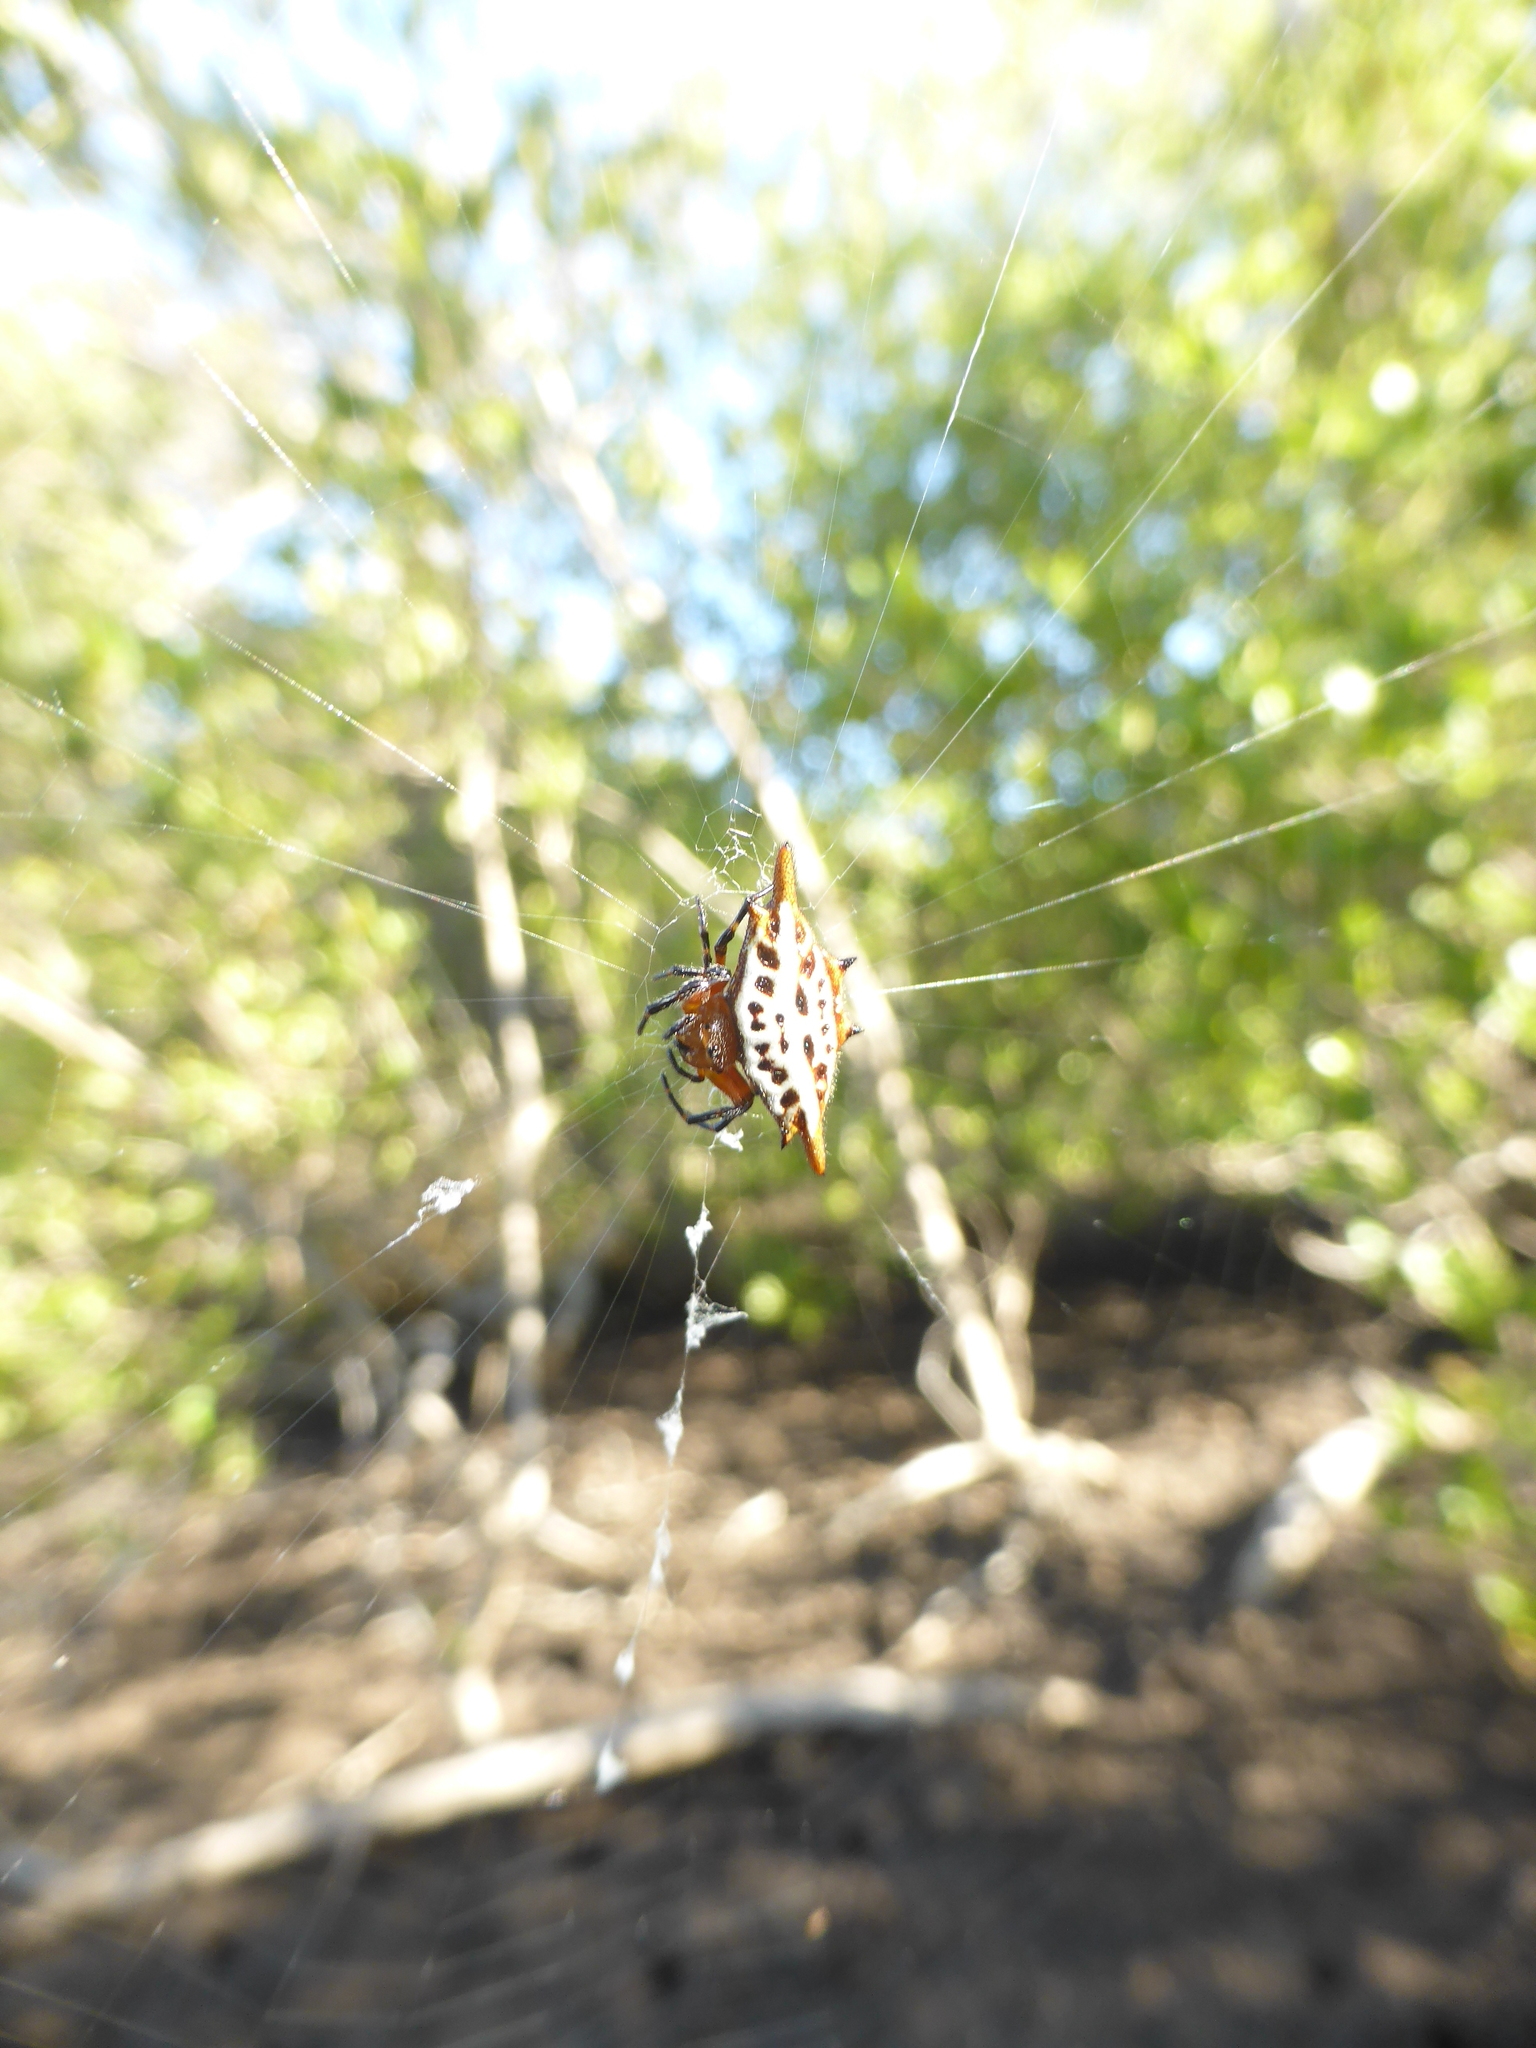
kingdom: Animalia
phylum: Arthropoda
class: Arachnida
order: Araneae
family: Araneidae
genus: Gasteracantha
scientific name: Gasteracantha sanguinolenta
